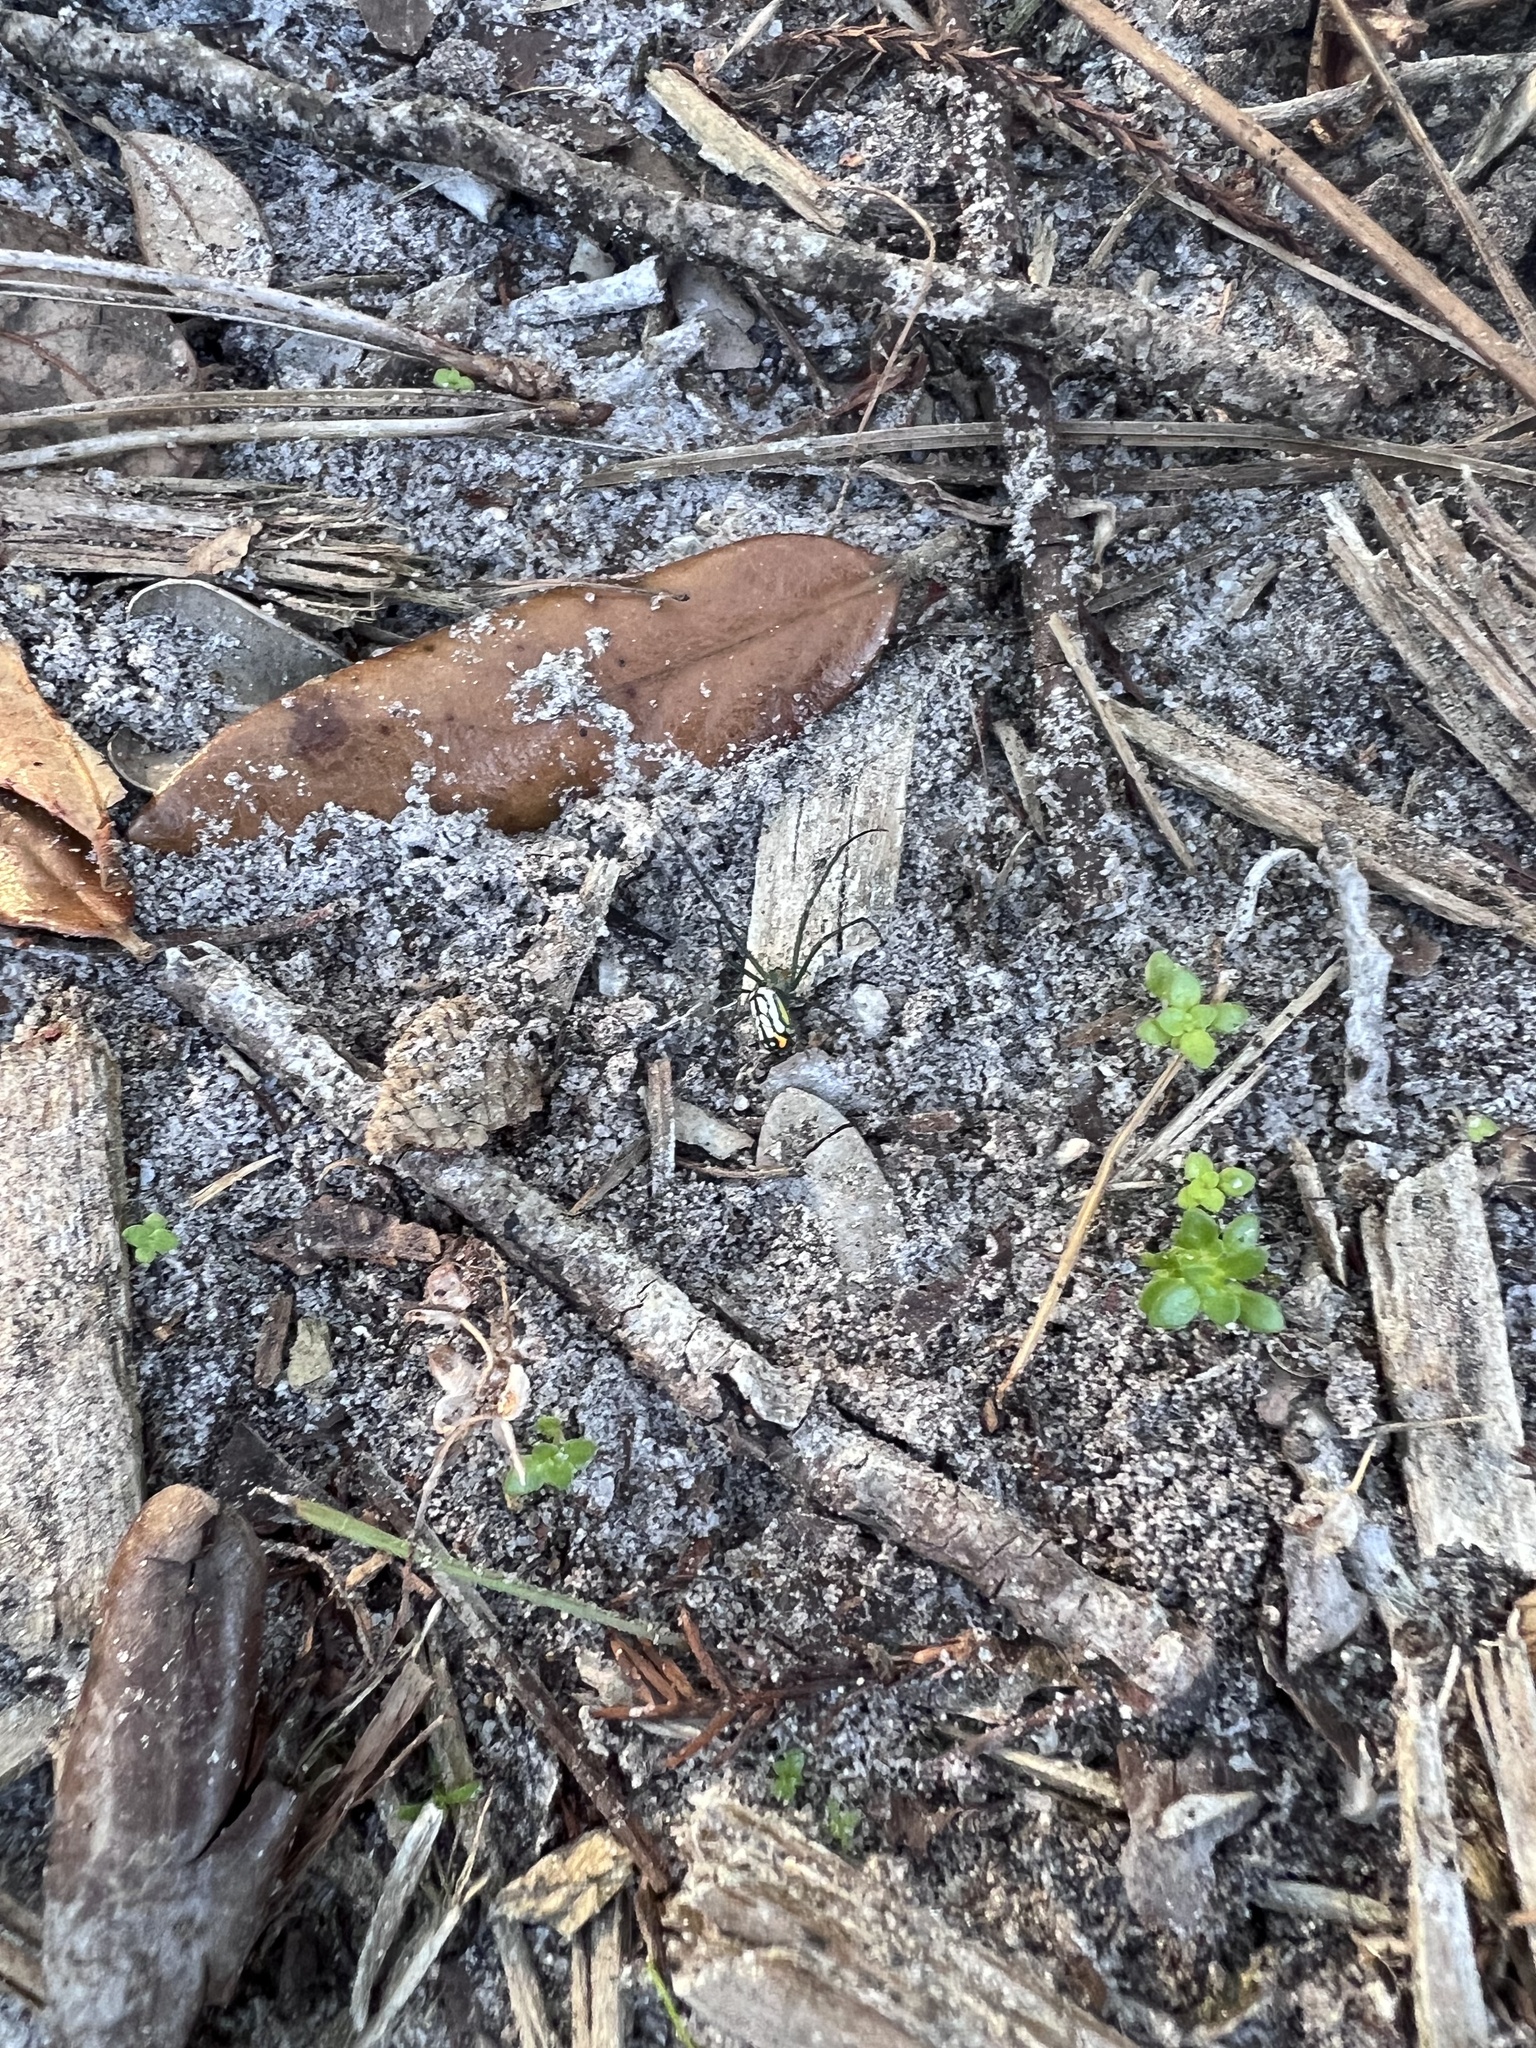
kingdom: Animalia
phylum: Arthropoda
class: Arachnida
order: Araneae
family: Tetragnathidae
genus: Leucauge
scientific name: Leucauge argyrobapta
